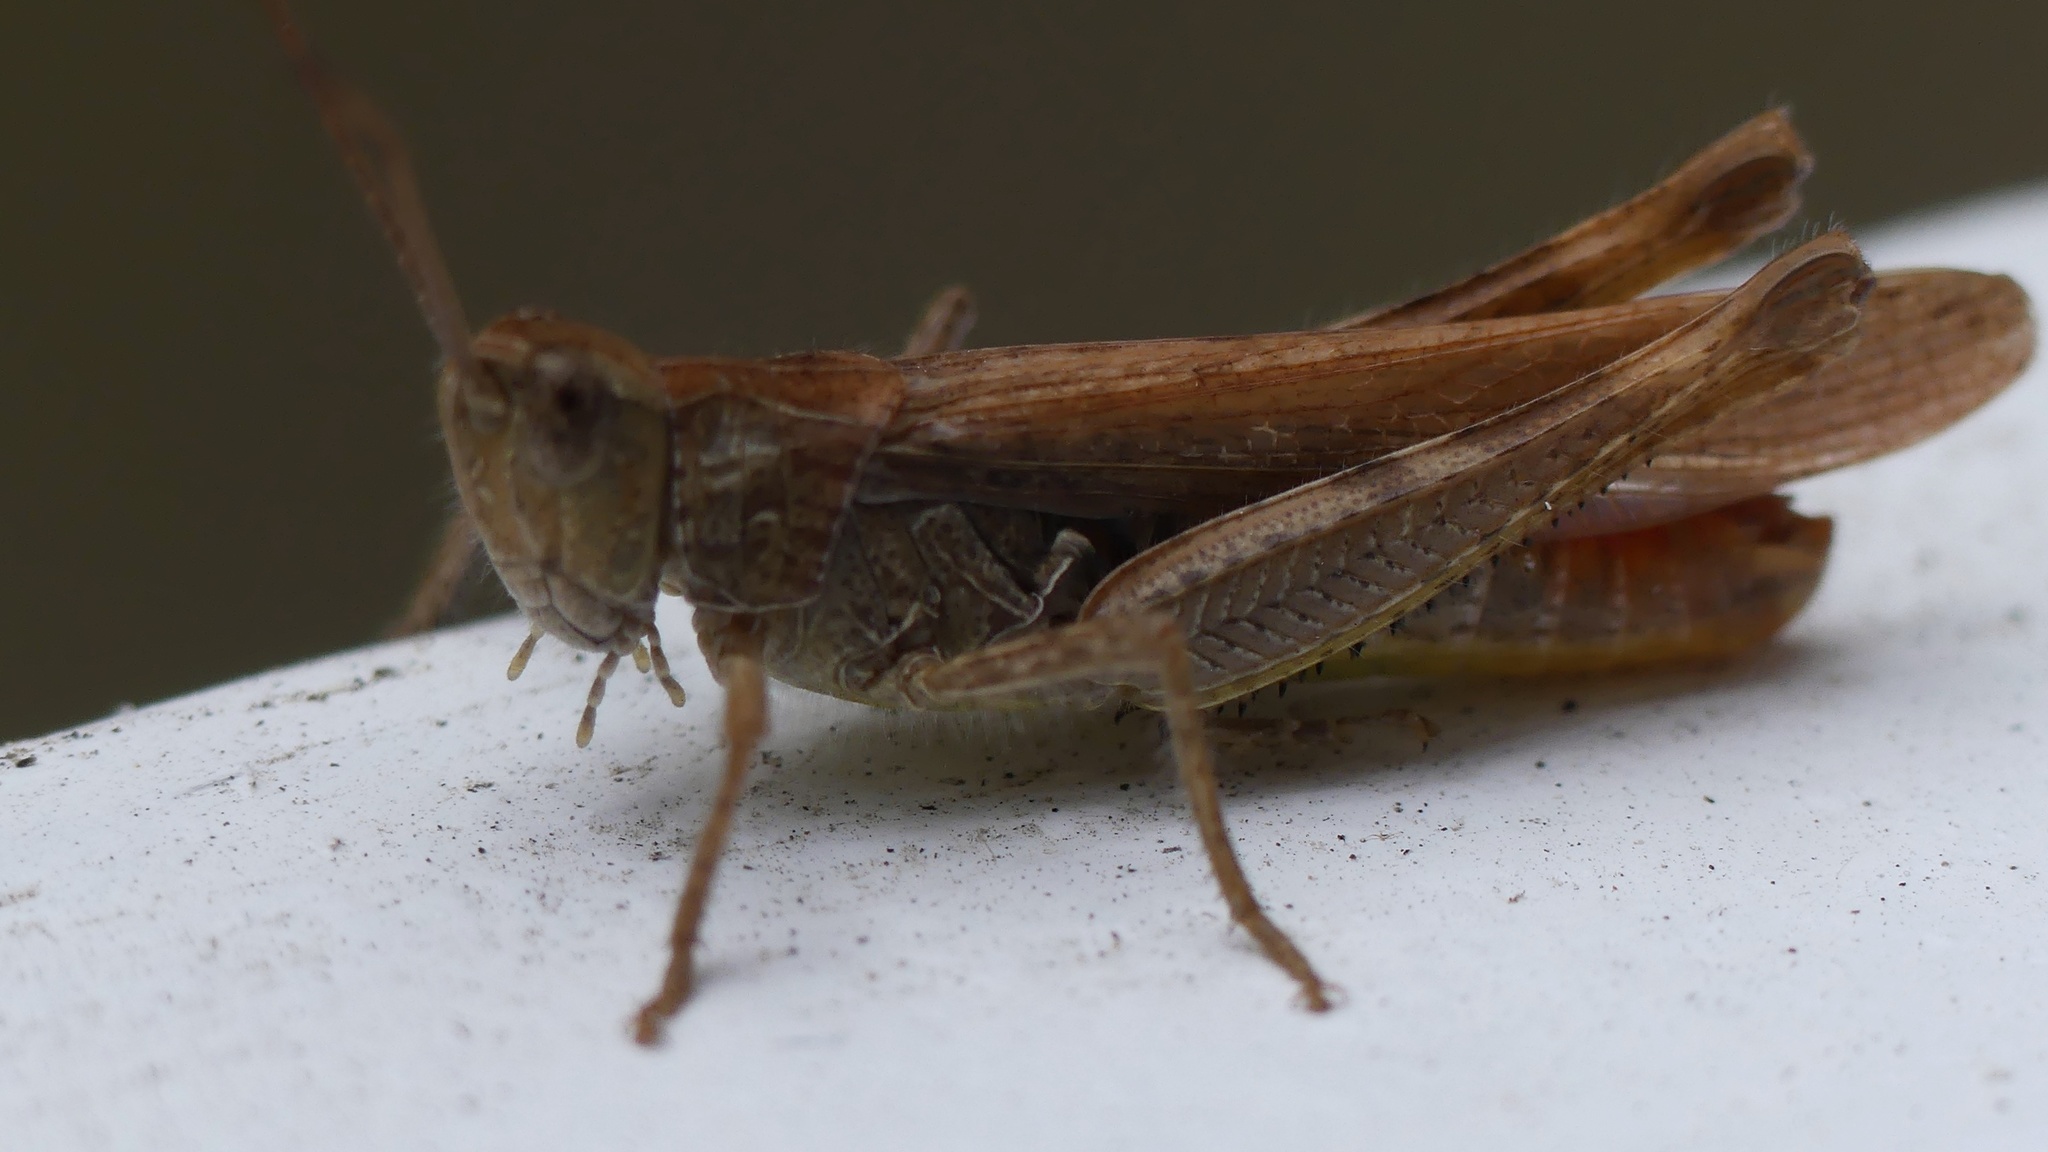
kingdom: Animalia
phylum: Arthropoda
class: Insecta
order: Orthoptera
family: Acrididae
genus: Chorthippus
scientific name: Chorthippus brunneus
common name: Field grasshopper
